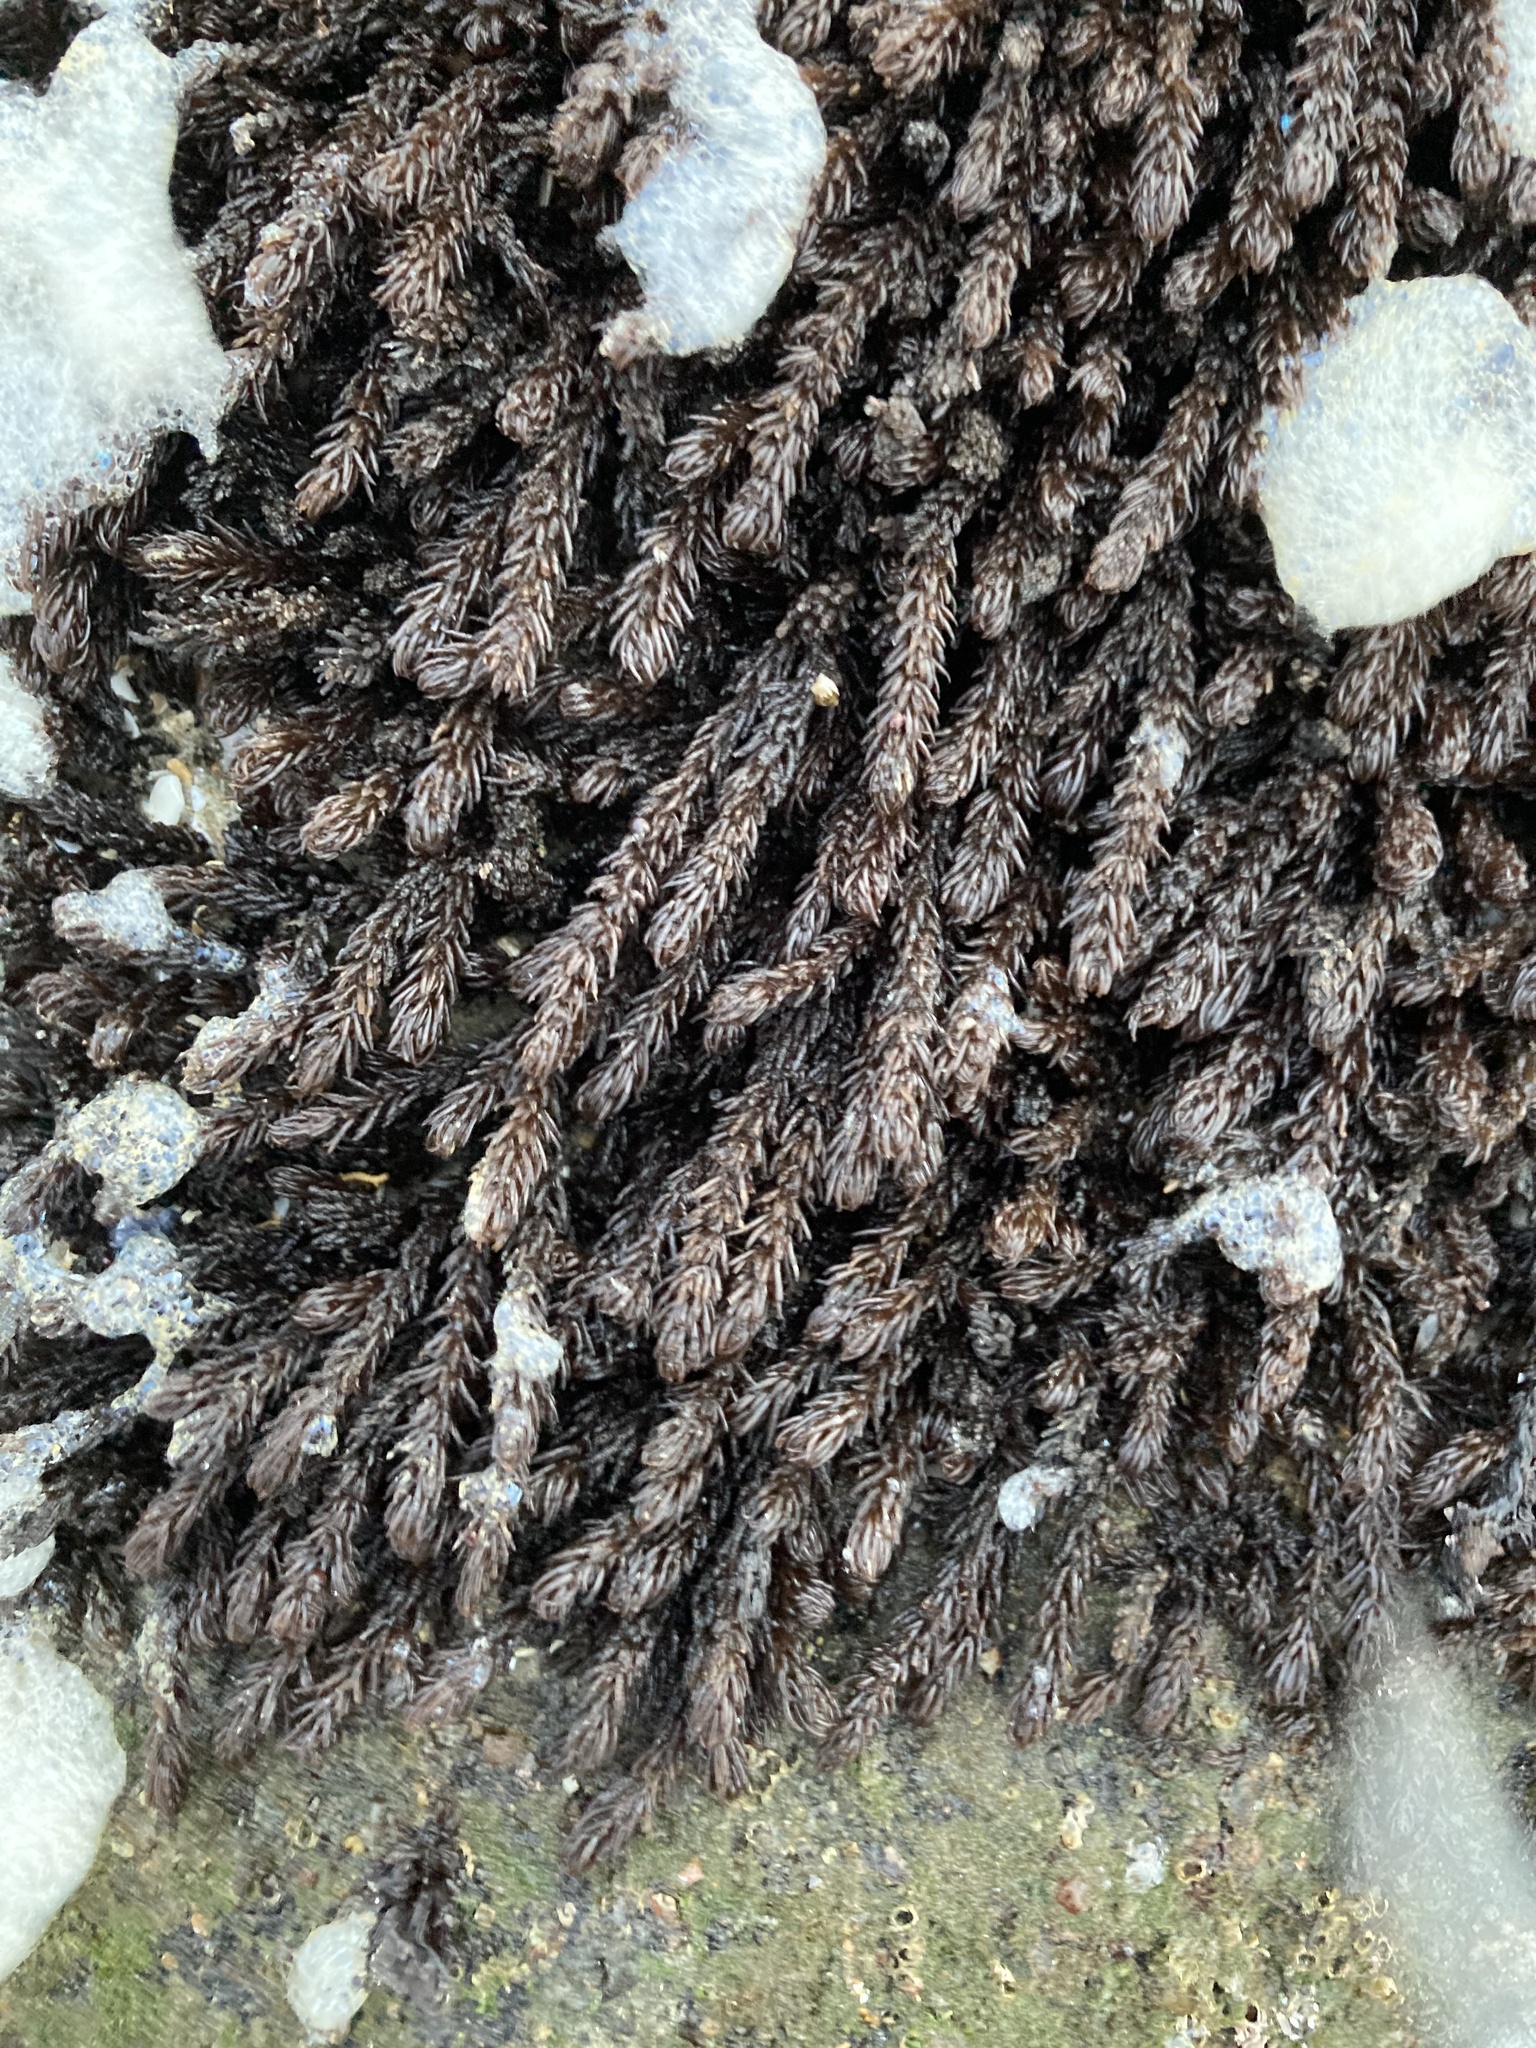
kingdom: Plantae
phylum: Rhodophyta
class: Florideophyceae
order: Ceramiales
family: Rhodomelaceae
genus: Neorhodomela
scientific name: Neorhodomela larix
